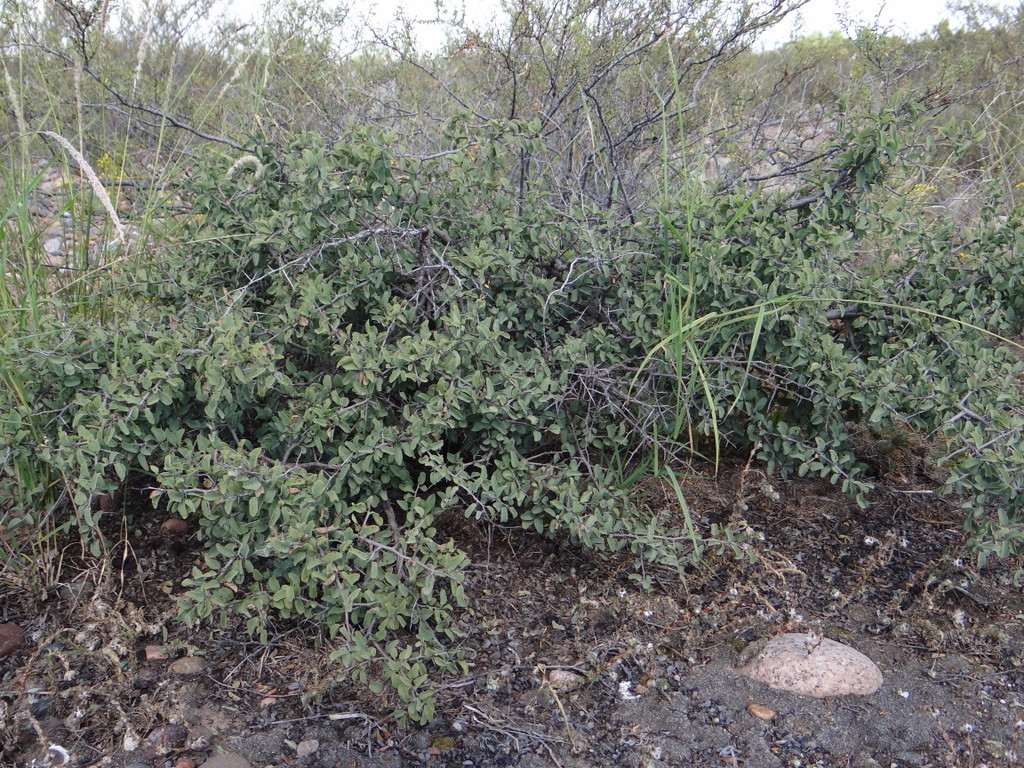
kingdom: Plantae
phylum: Tracheophyta
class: Magnoliopsida
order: Santalales
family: Ximeniaceae
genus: Ximenia
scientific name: Ximenia americana
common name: Tallowwood
